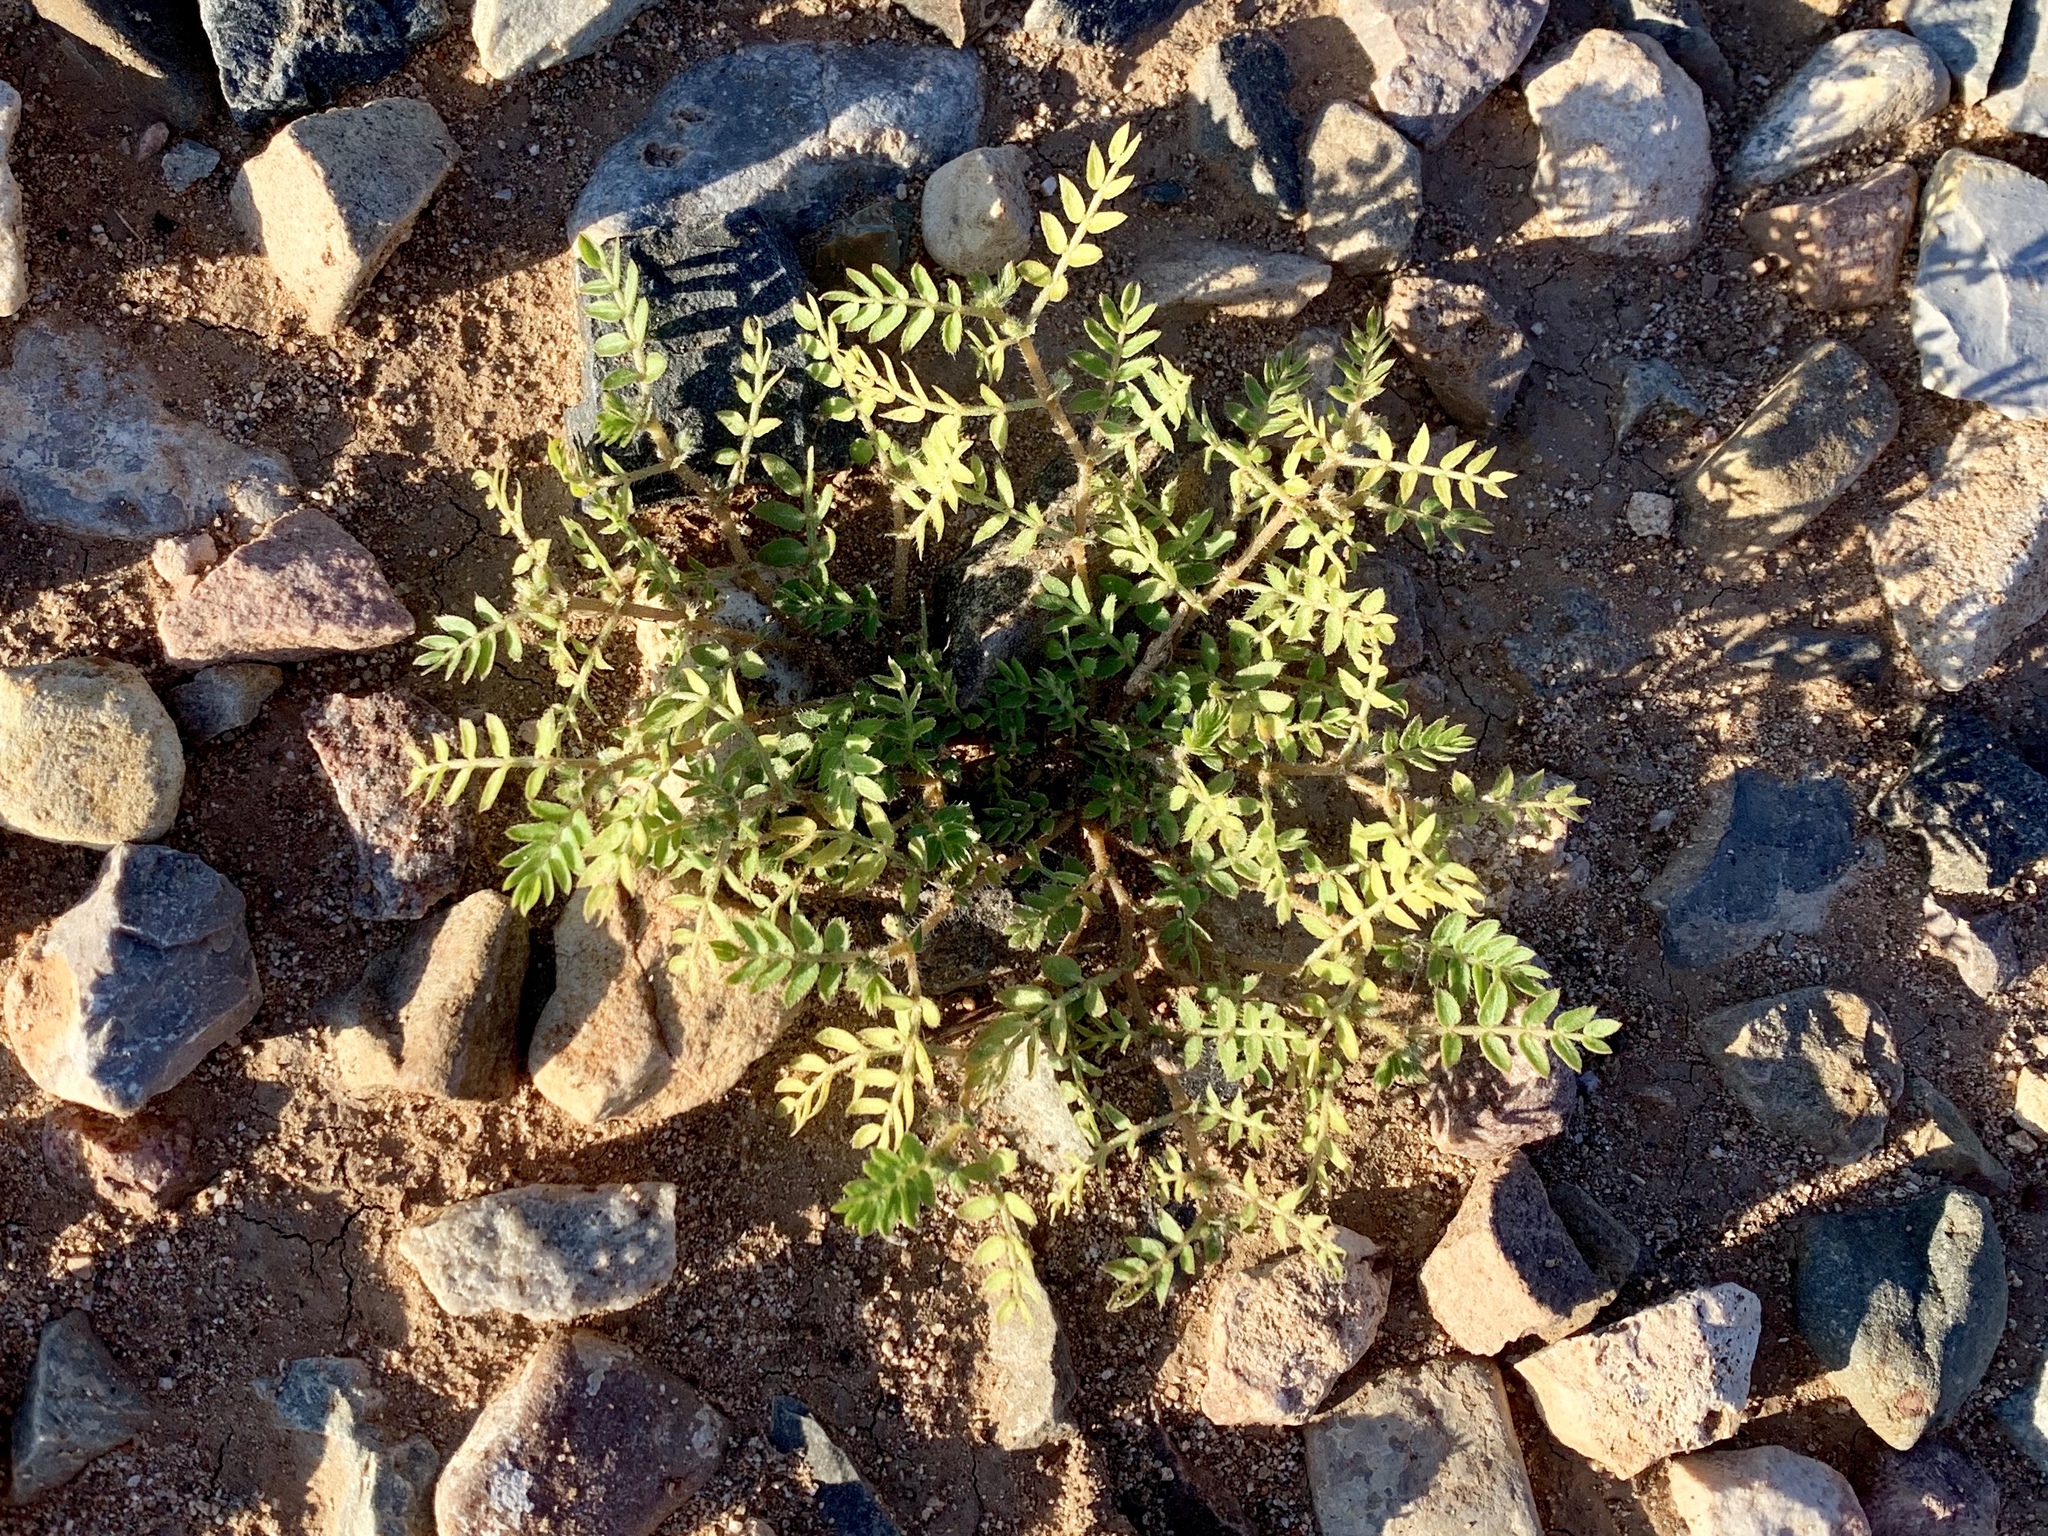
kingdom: Plantae
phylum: Tracheophyta
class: Magnoliopsida
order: Zygophyllales
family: Zygophyllaceae
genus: Tribulus
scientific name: Tribulus terrestris
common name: Puncturevine
